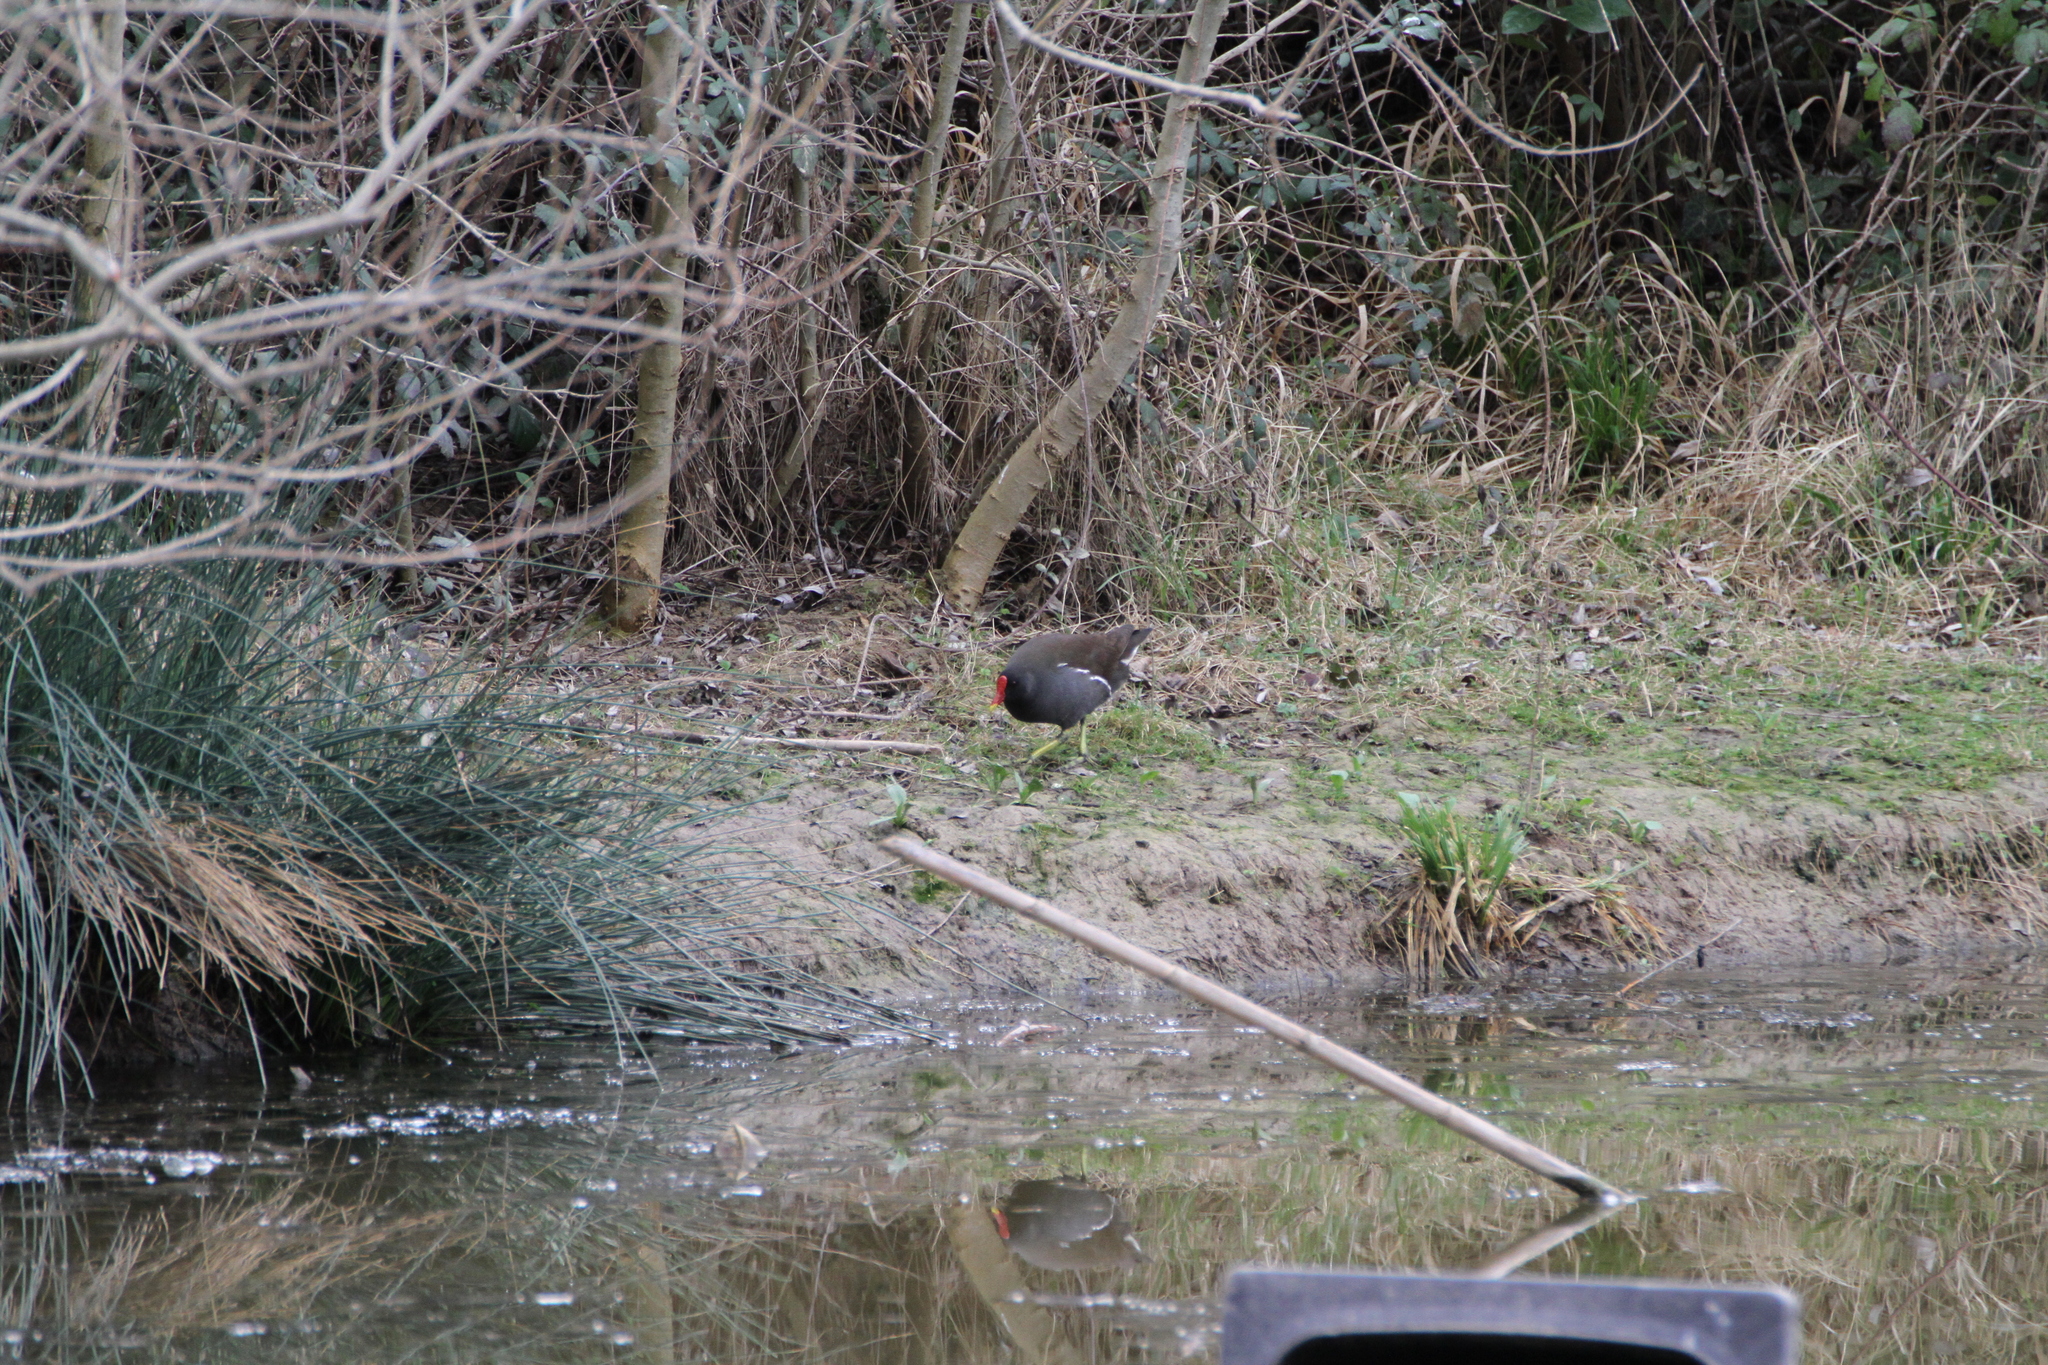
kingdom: Animalia
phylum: Chordata
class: Aves
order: Gruiformes
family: Rallidae
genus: Gallinula
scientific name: Gallinula chloropus
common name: Common moorhen
